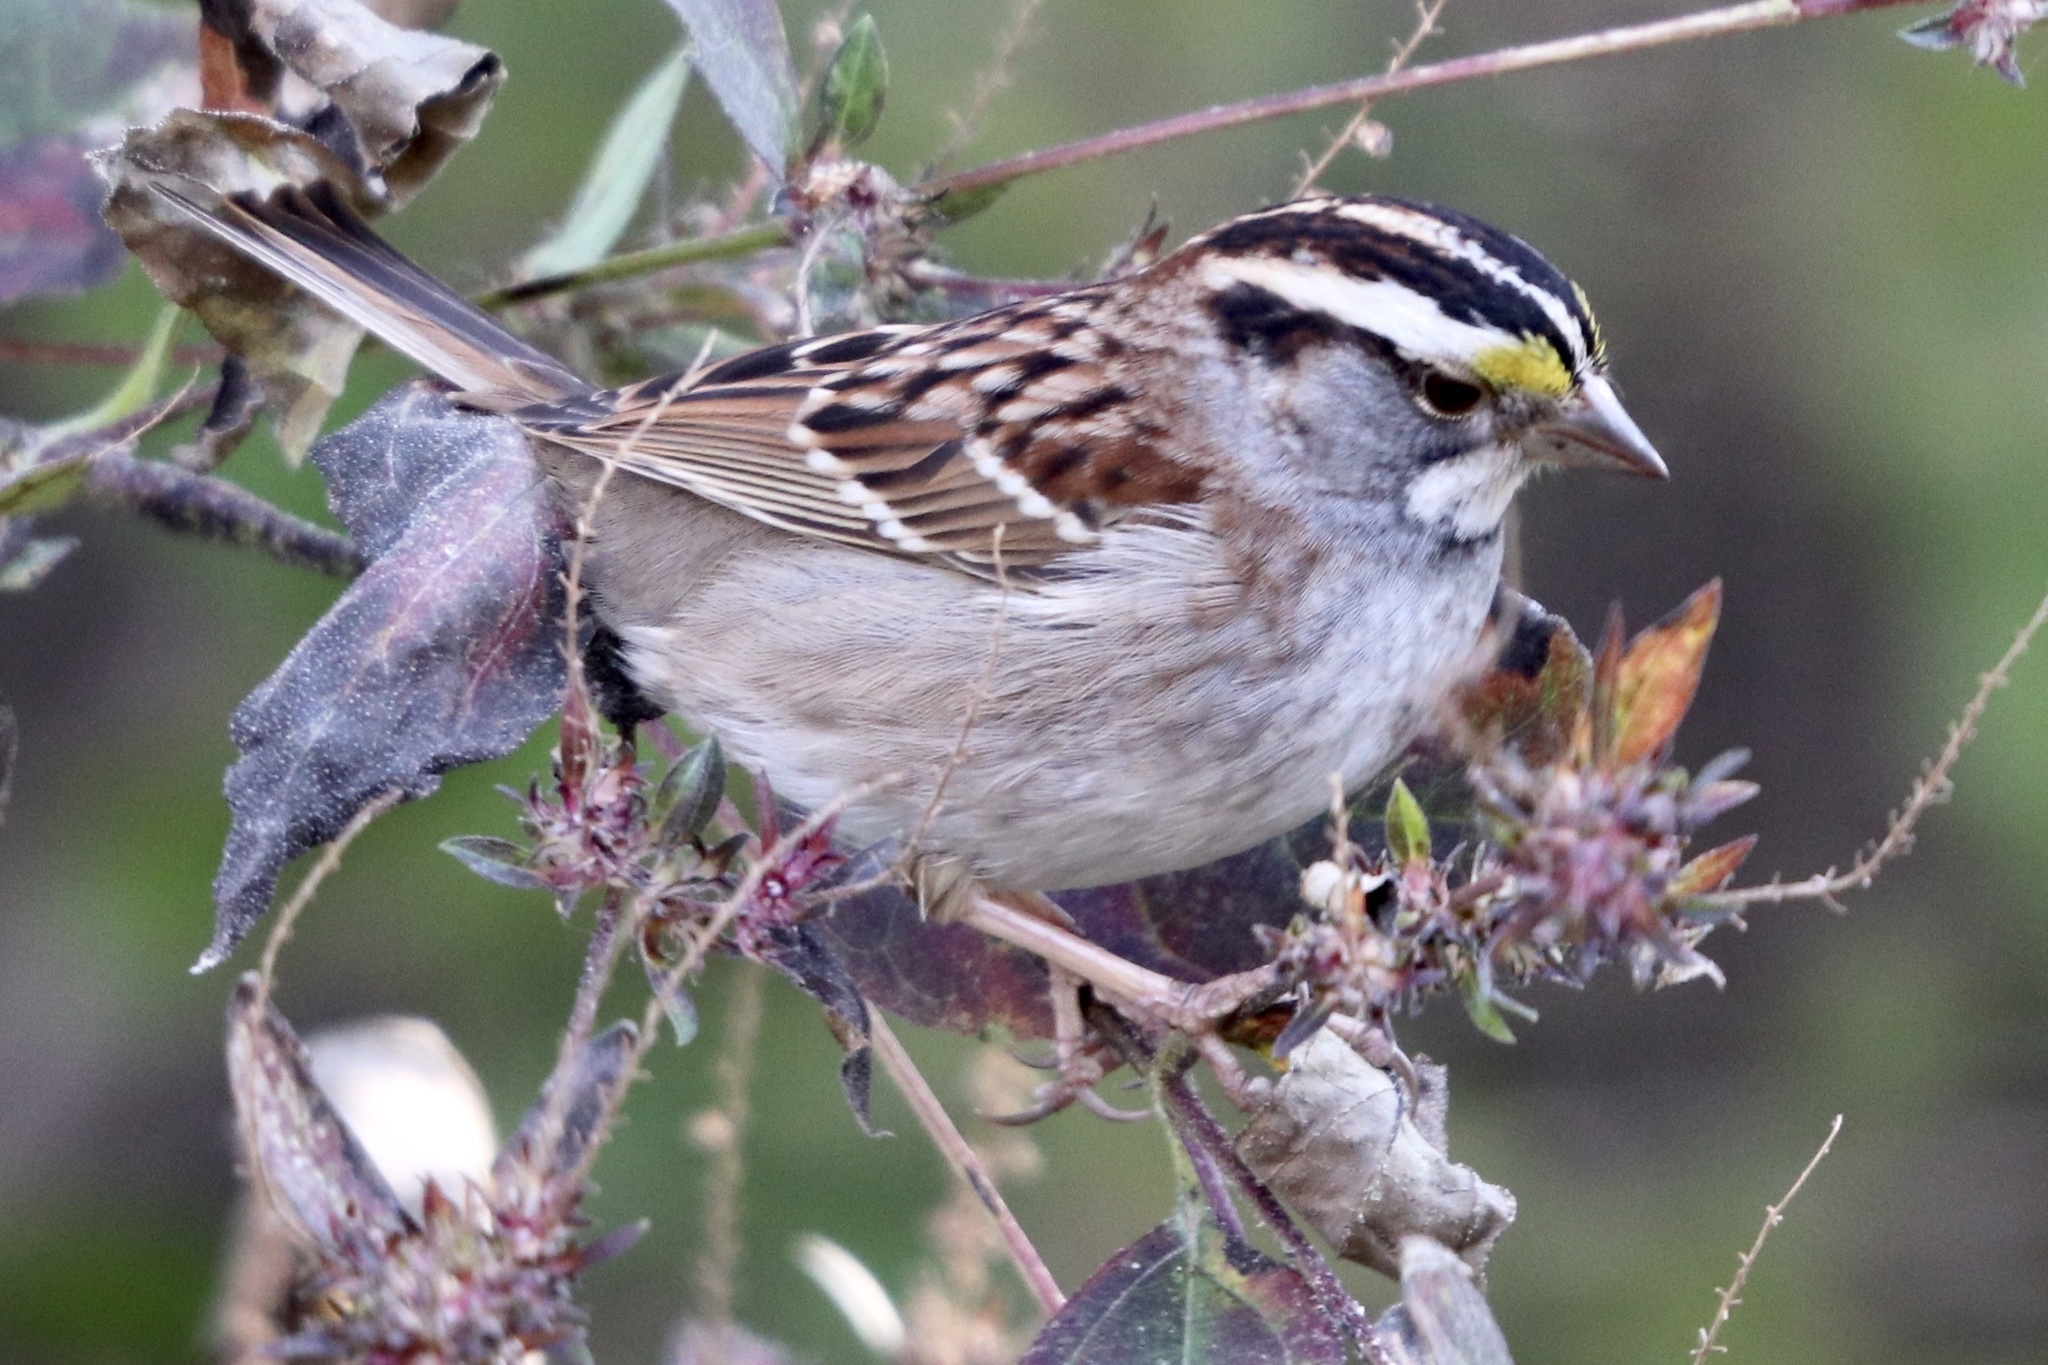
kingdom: Animalia
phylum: Chordata
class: Aves
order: Passeriformes
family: Passerellidae
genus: Zonotrichia
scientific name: Zonotrichia albicollis
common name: White-throated sparrow
